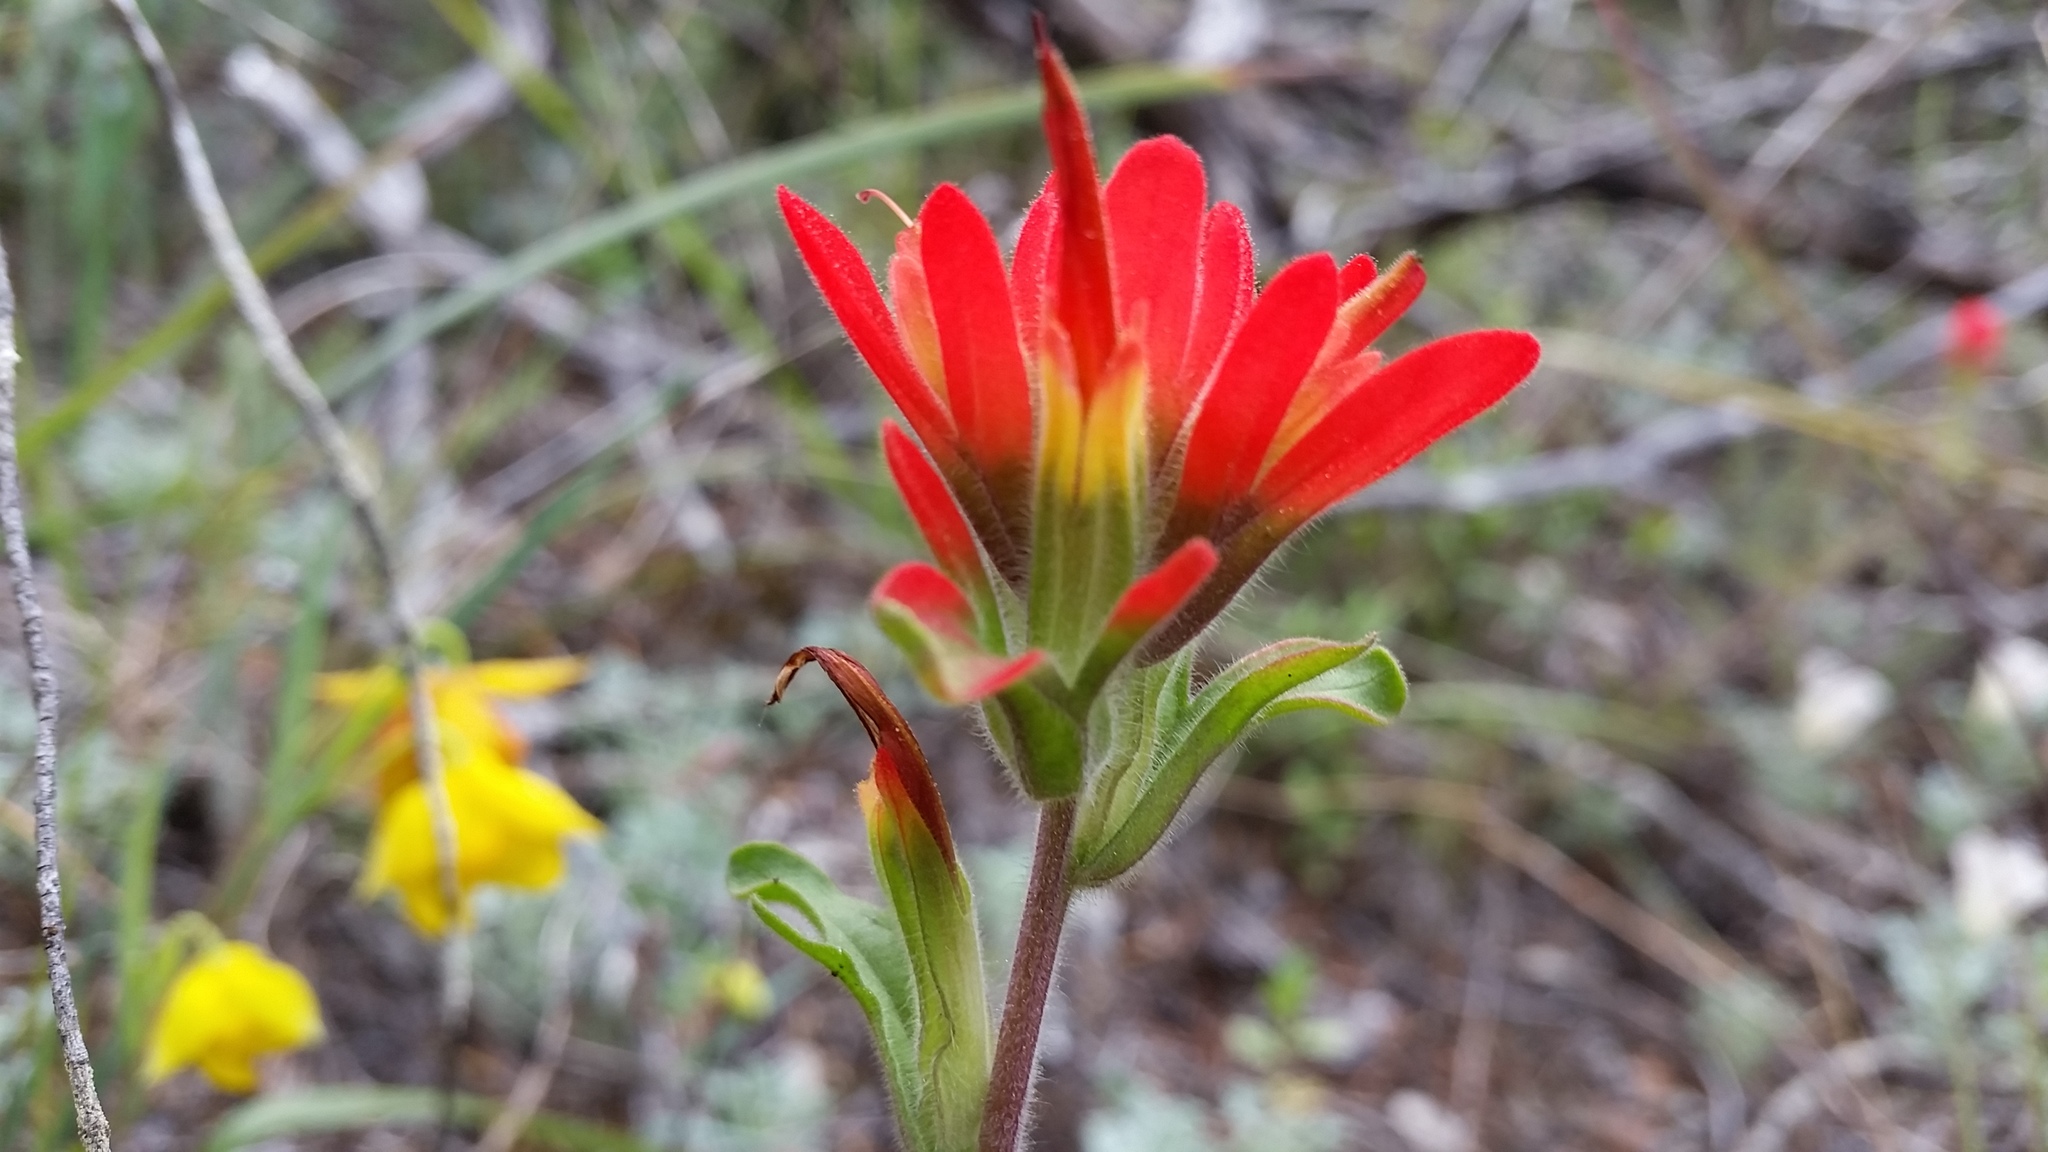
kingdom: Plantae
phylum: Tracheophyta
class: Magnoliopsida
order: Lamiales
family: Orobanchaceae
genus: Castilleja
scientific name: Castilleja martini
